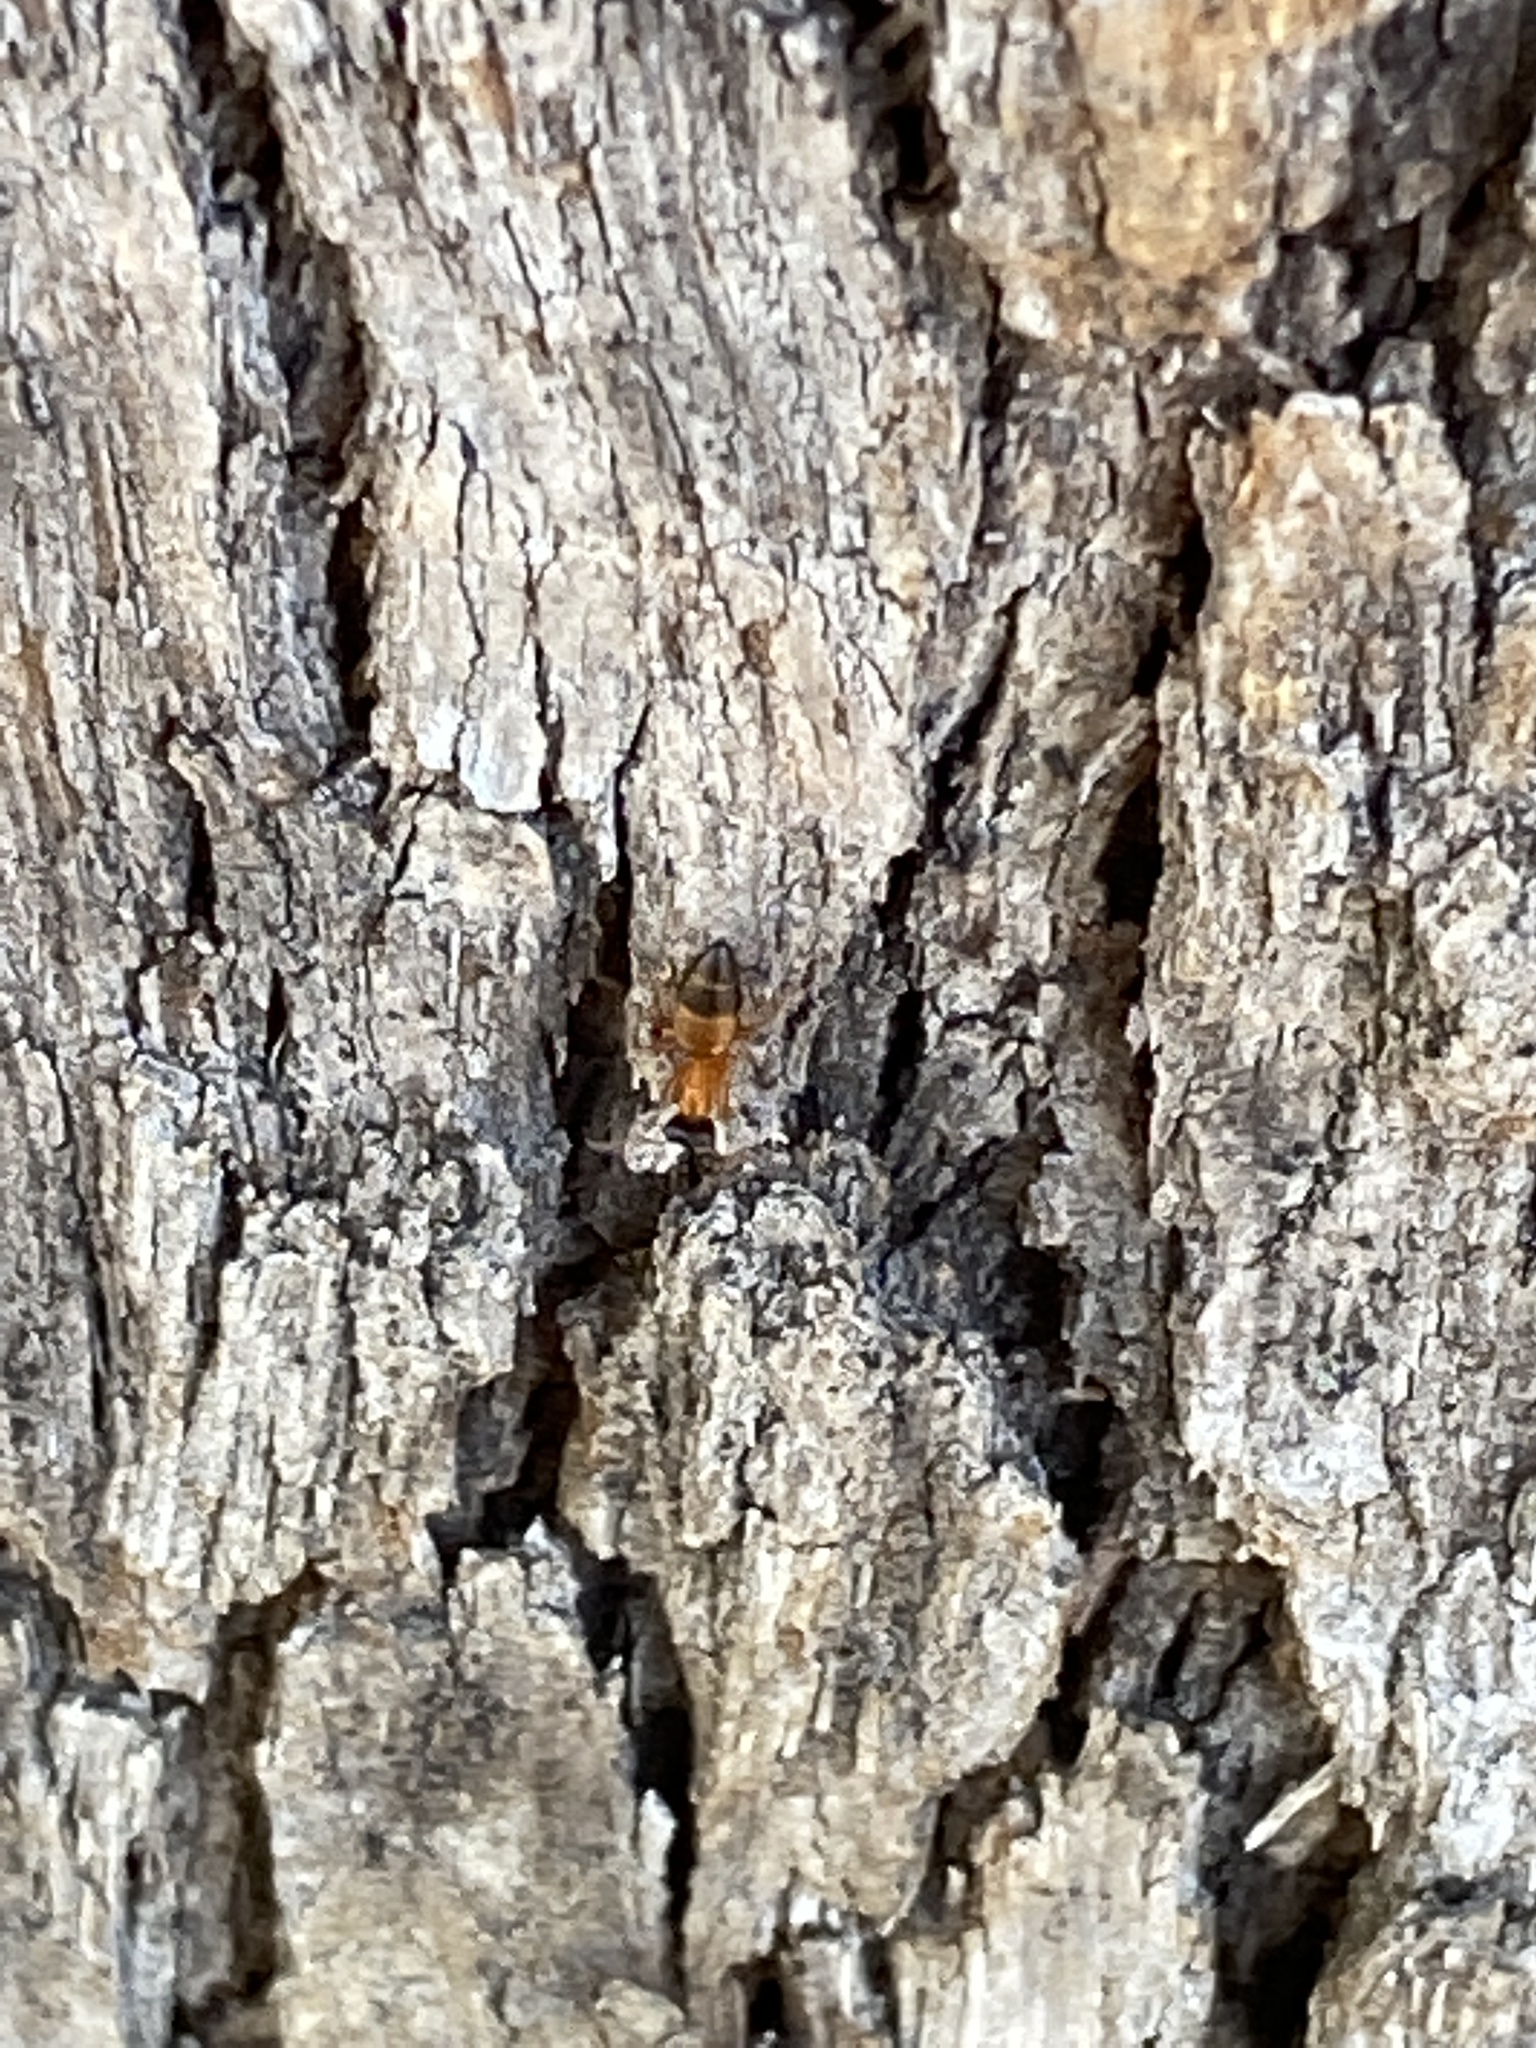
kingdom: Animalia
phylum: Arthropoda
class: Insecta
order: Hymenoptera
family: Formicidae
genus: Opisthopsis
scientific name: Opisthopsis rufithorax
